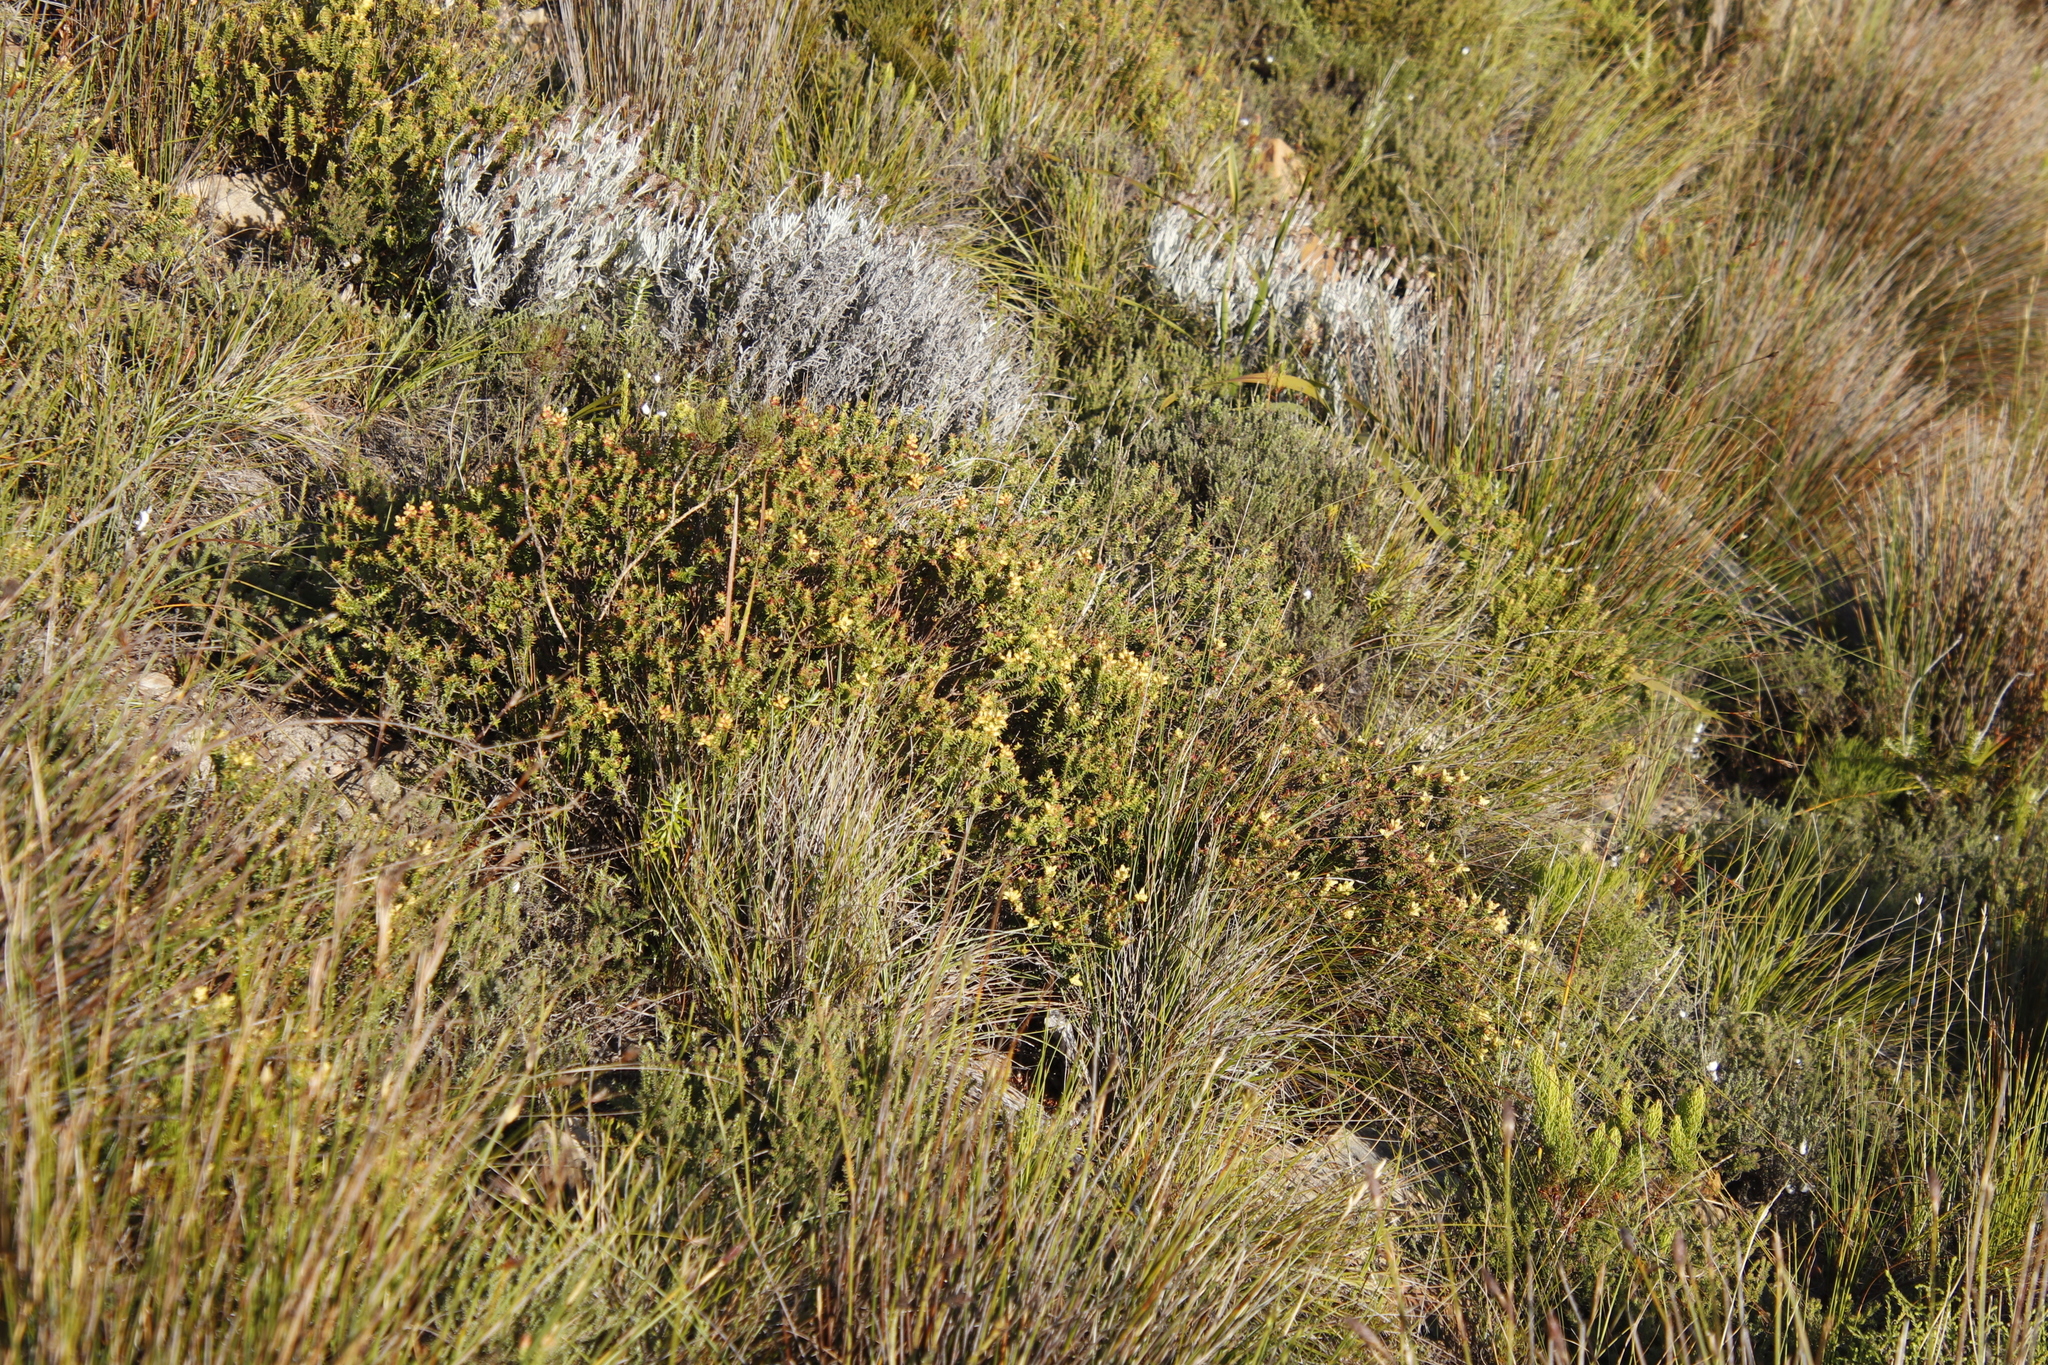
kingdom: Plantae
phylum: Tracheophyta
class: Magnoliopsida
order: Myrtales
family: Penaeaceae
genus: Penaea
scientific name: Penaea mucronata
